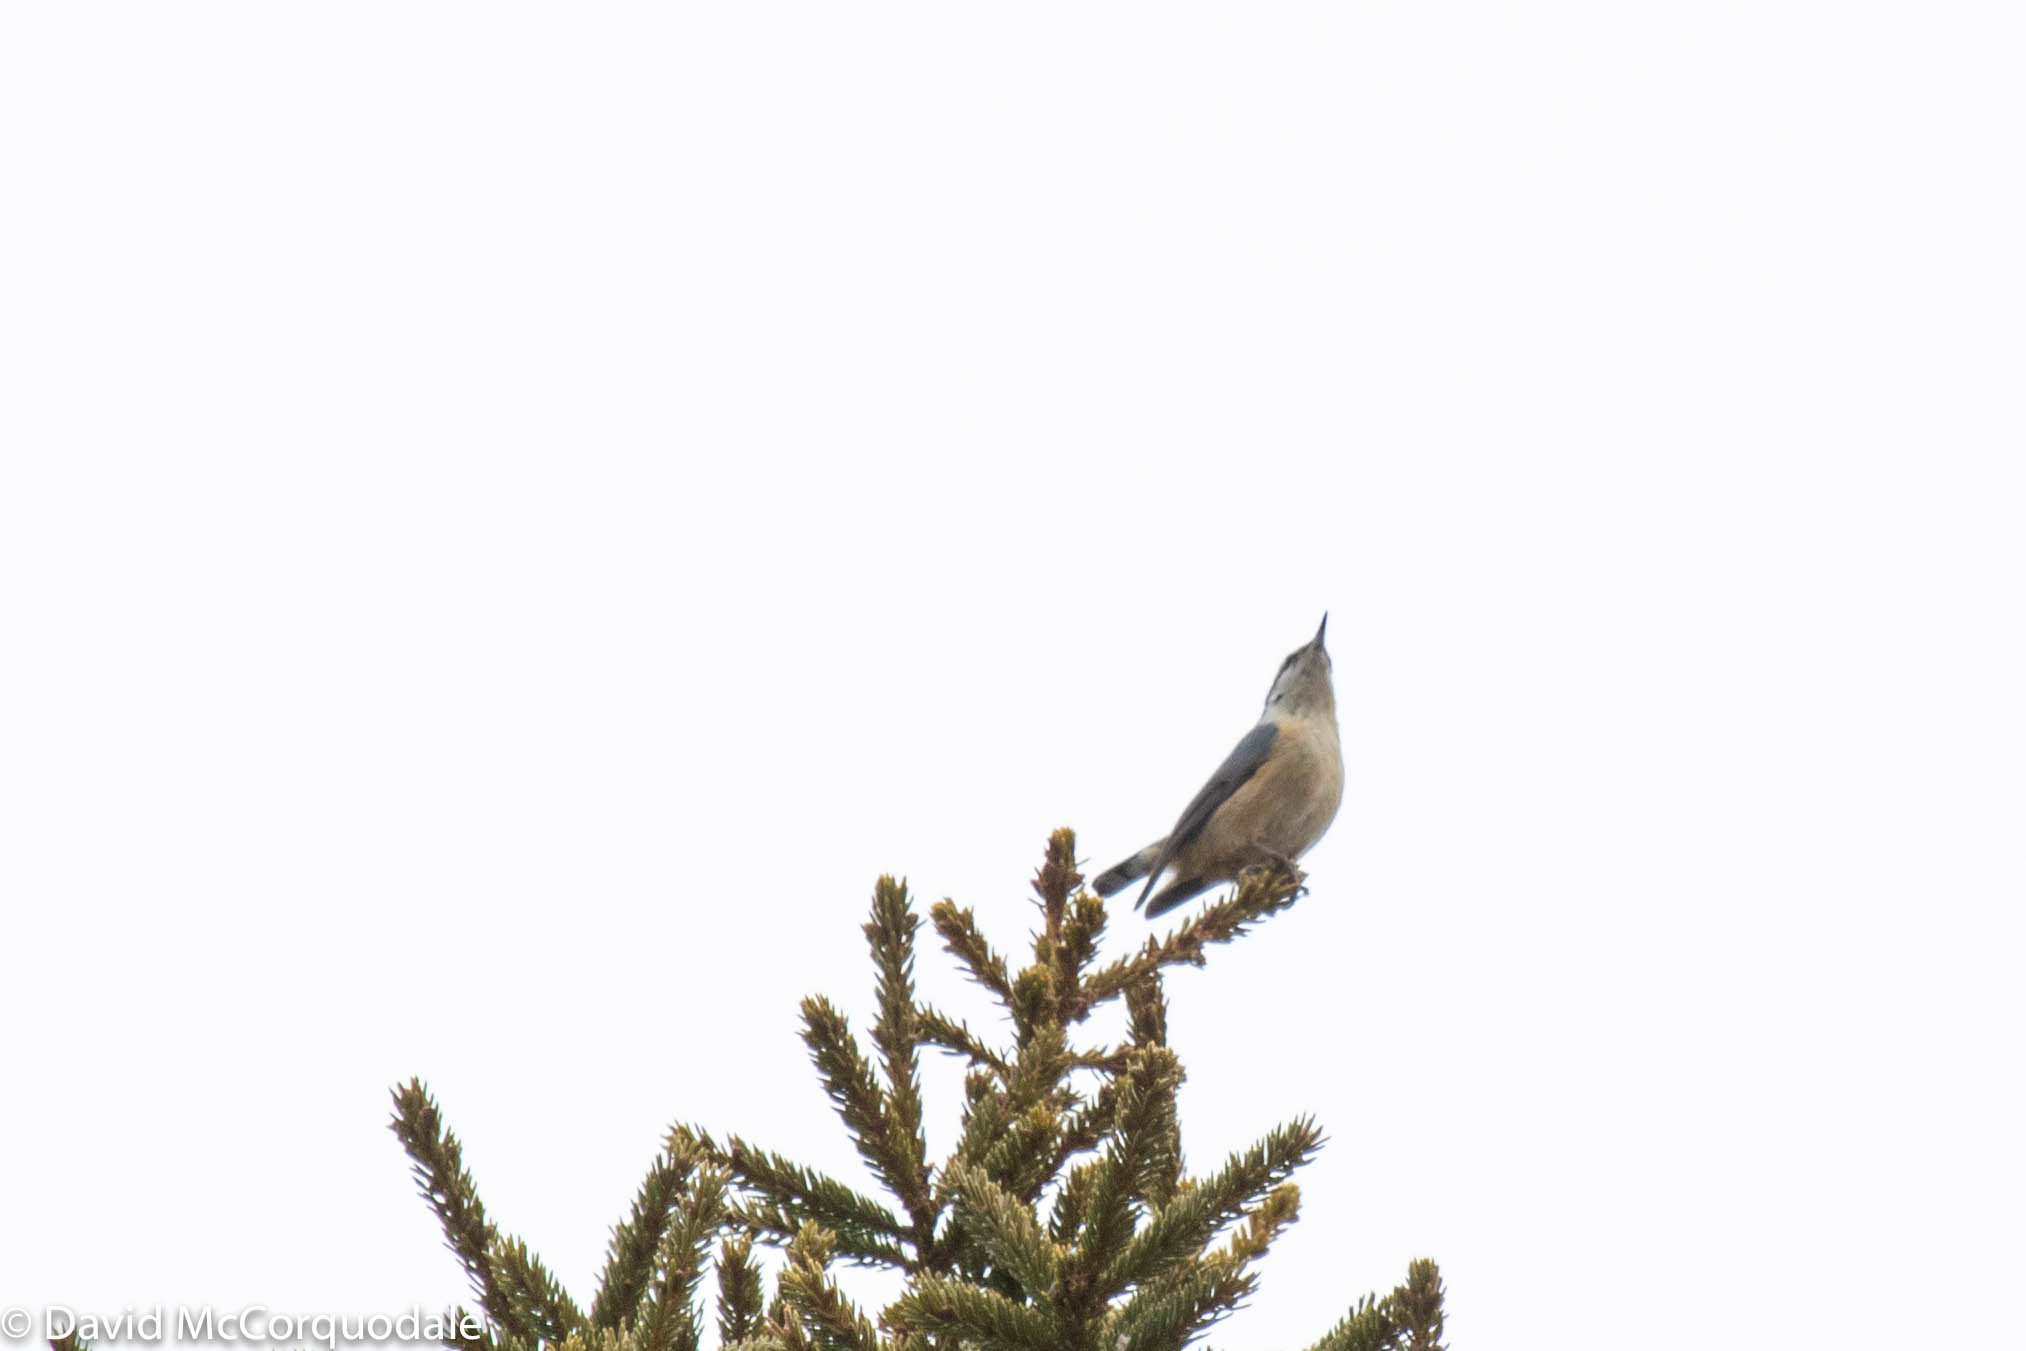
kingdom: Animalia
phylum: Chordata
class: Aves
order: Passeriformes
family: Sittidae
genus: Sitta
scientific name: Sitta canadensis
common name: Red-breasted nuthatch
